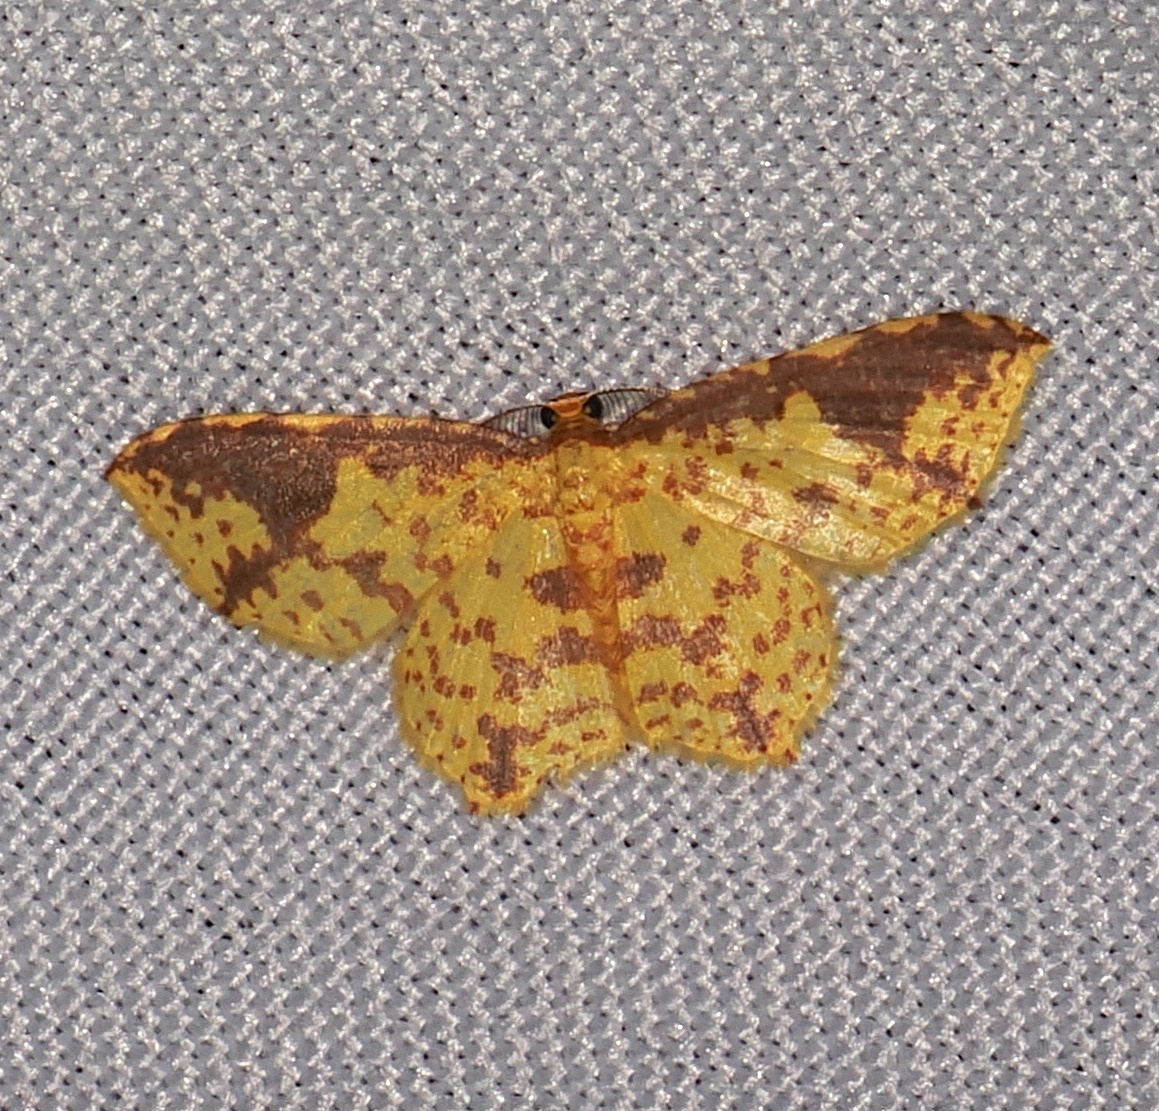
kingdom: Animalia
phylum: Arthropoda
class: Insecta
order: Lepidoptera
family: Geometridae
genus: Eois
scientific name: Eois heliadaria
